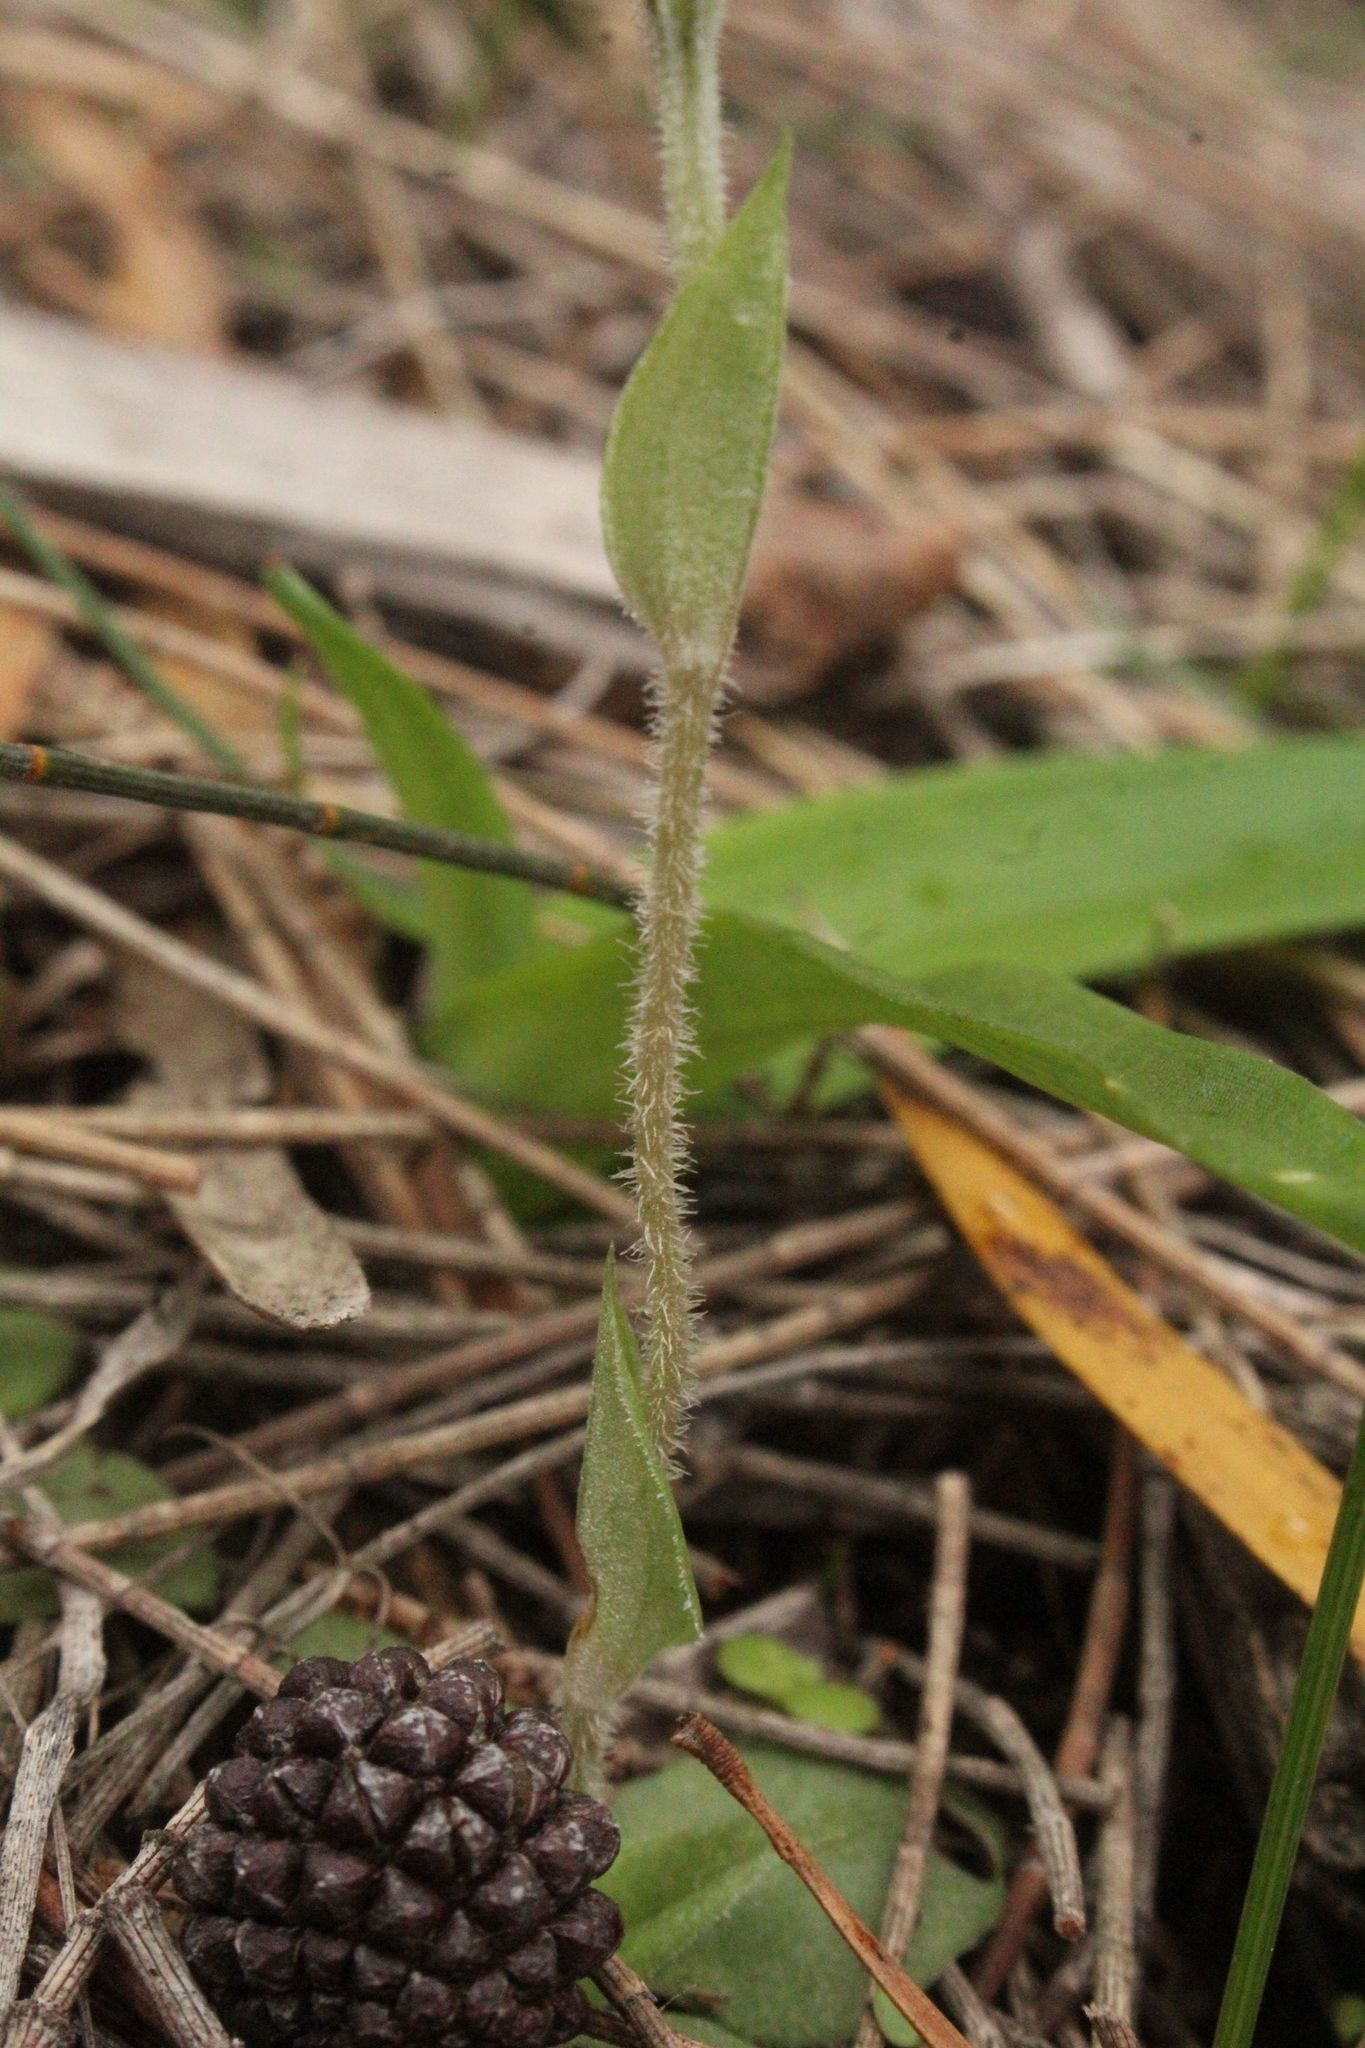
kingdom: Plantae
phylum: Tracheophyta
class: Liliopsida
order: Asparagales
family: Orchidaceae
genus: Pterostylis
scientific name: Pterostylis dilatata
